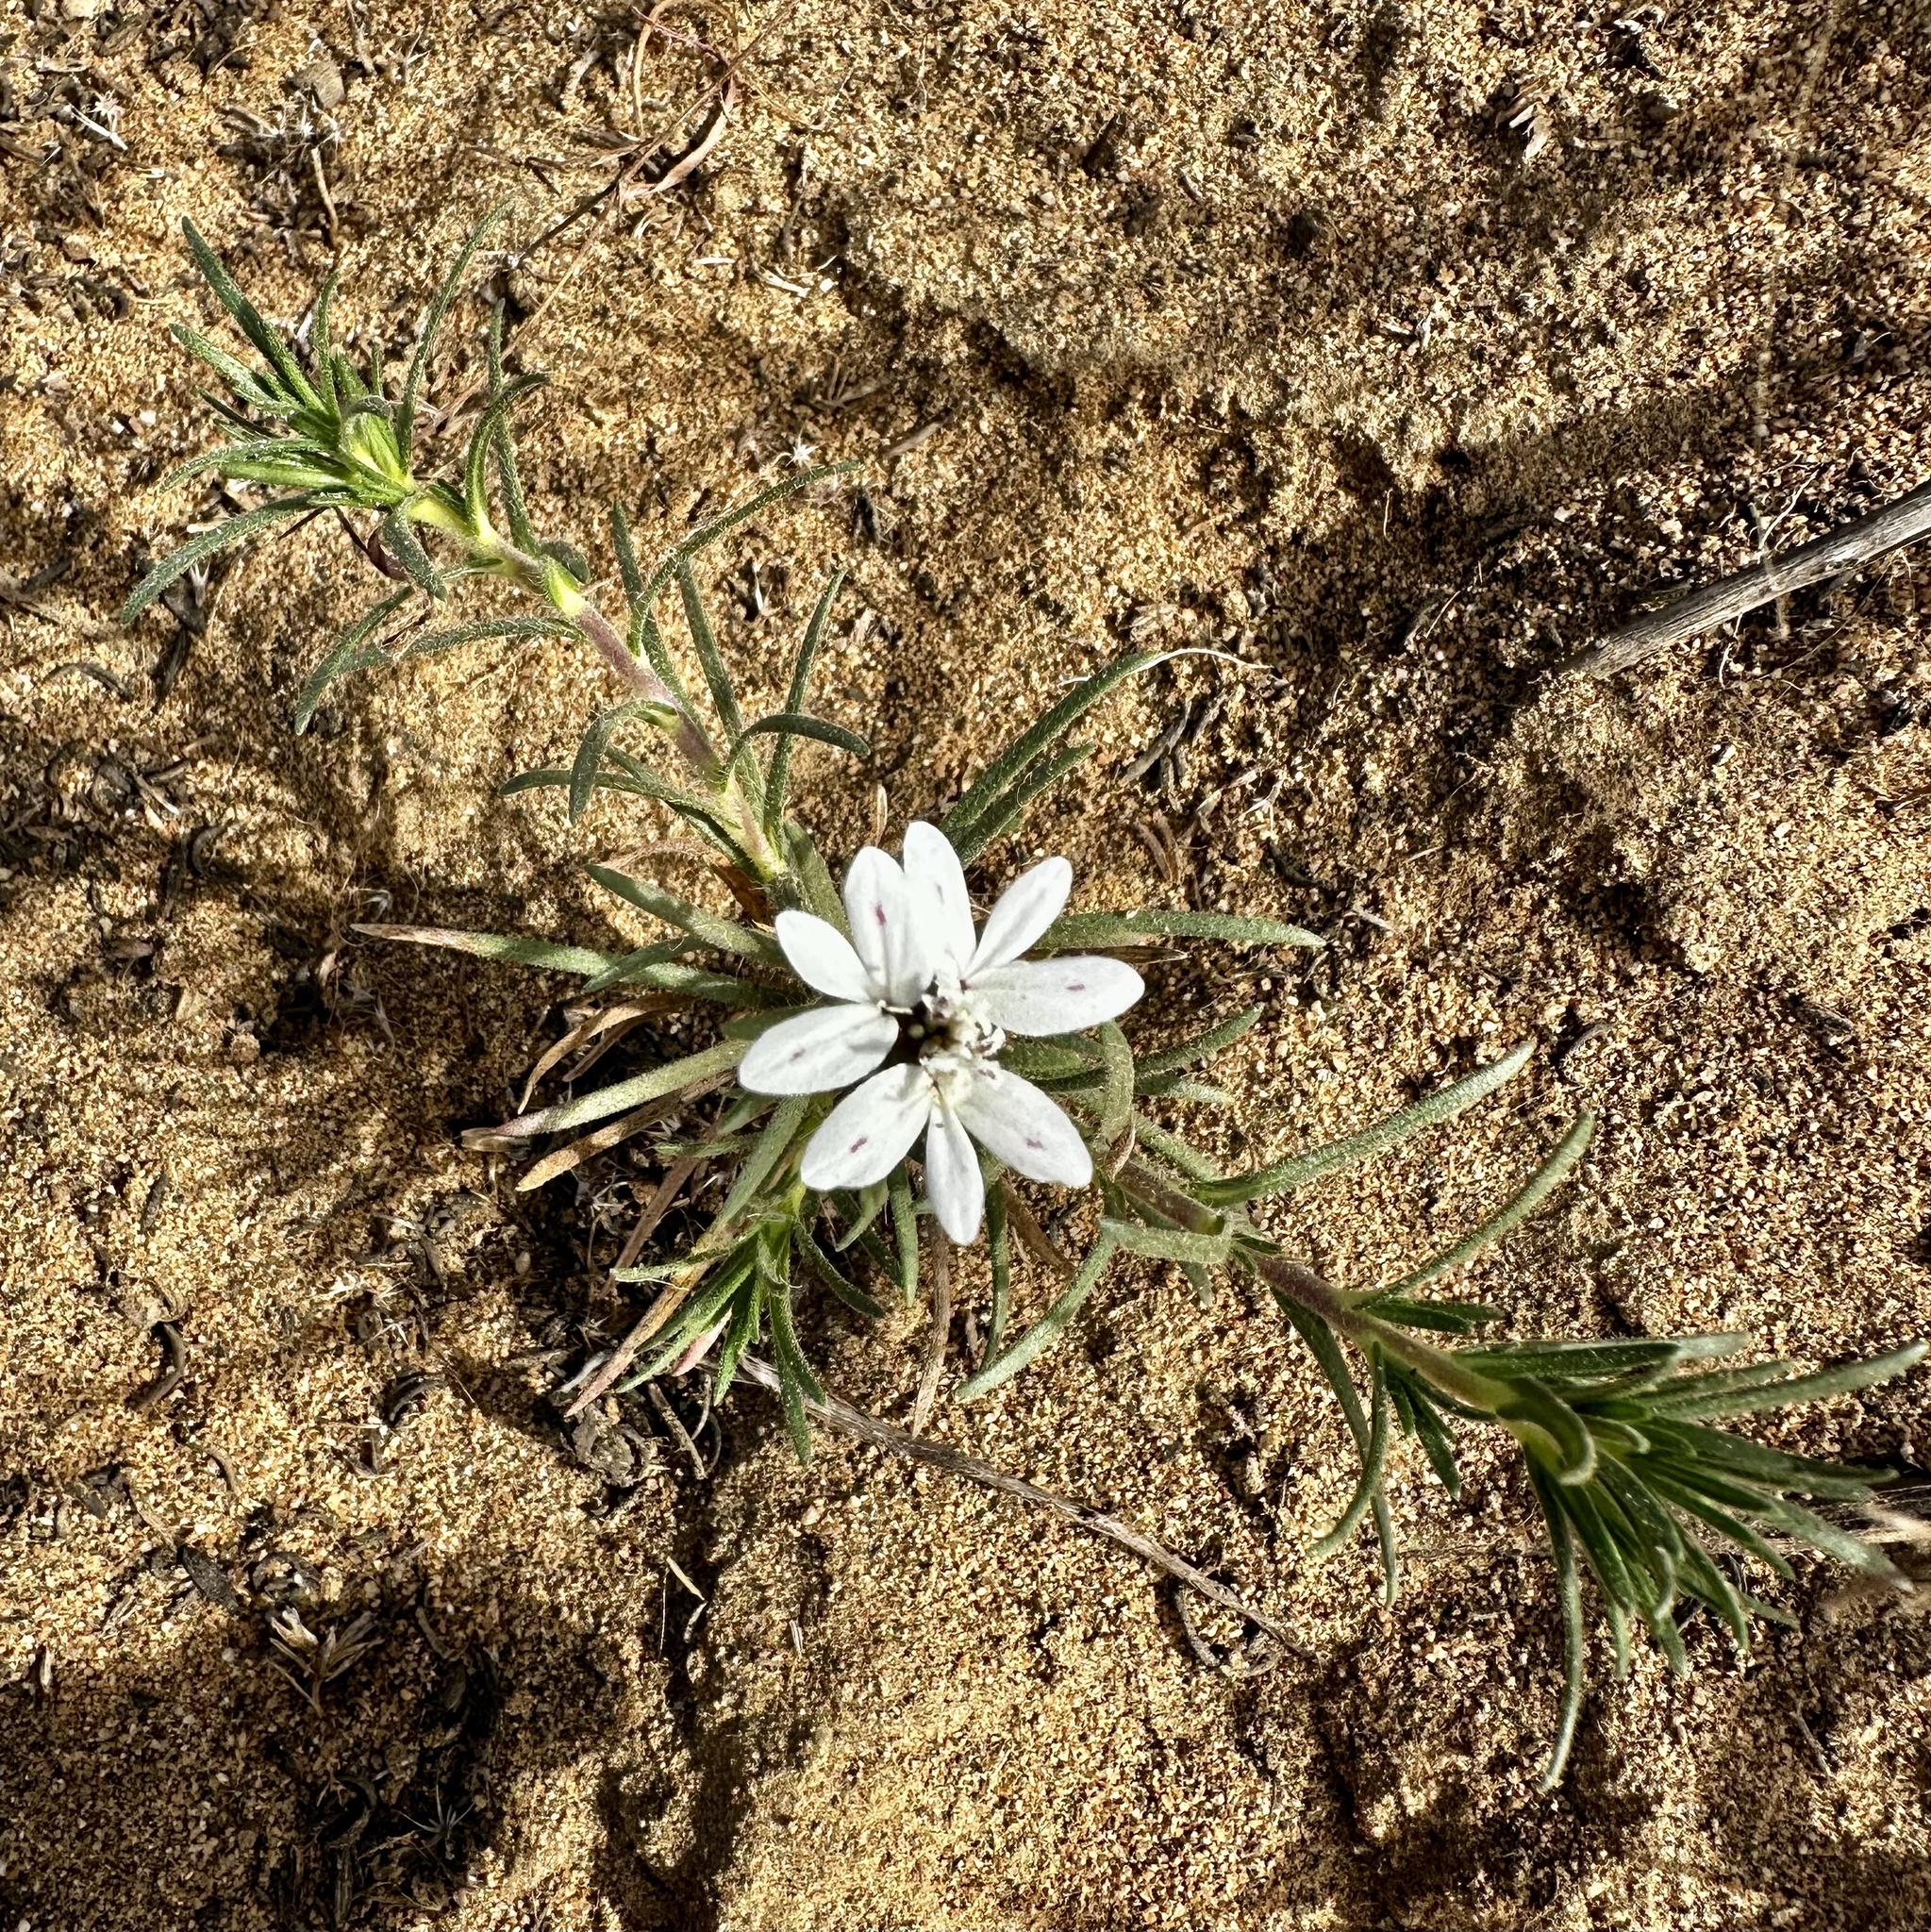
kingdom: Plantae
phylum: Tracheophyta
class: Magnoliopsida
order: Asterales
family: Asteraceae
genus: Osmadenia
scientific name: Osmadenia tenella
